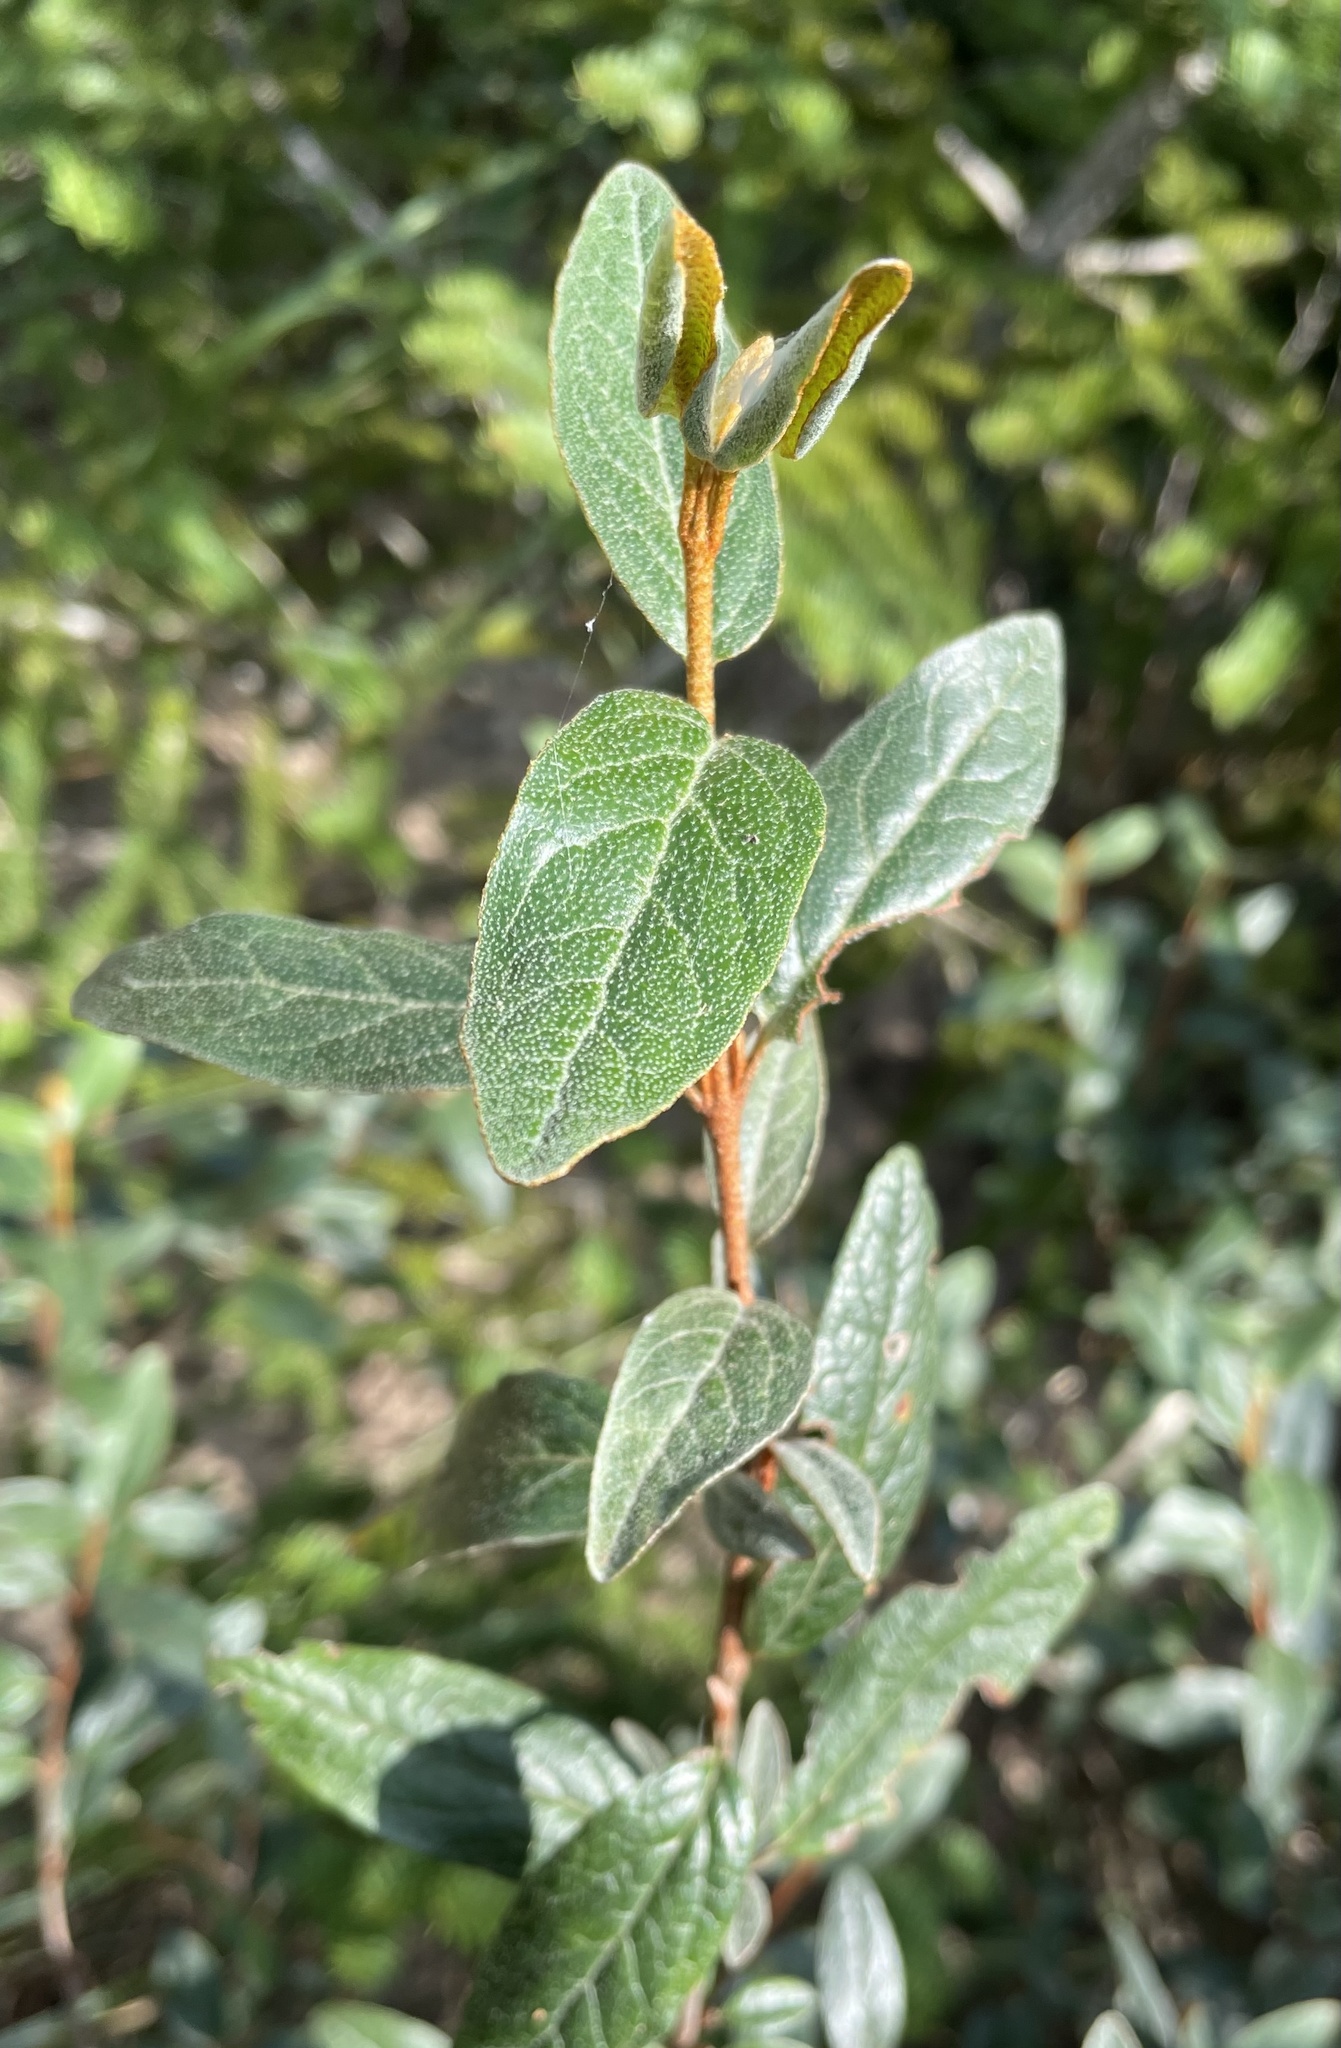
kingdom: Plantae
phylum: Tracheophyta
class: Magnoliopsida
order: Rosales
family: Elaeagnaceae
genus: Shepherdia
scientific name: Shepherdia canadensis
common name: Soapberry
